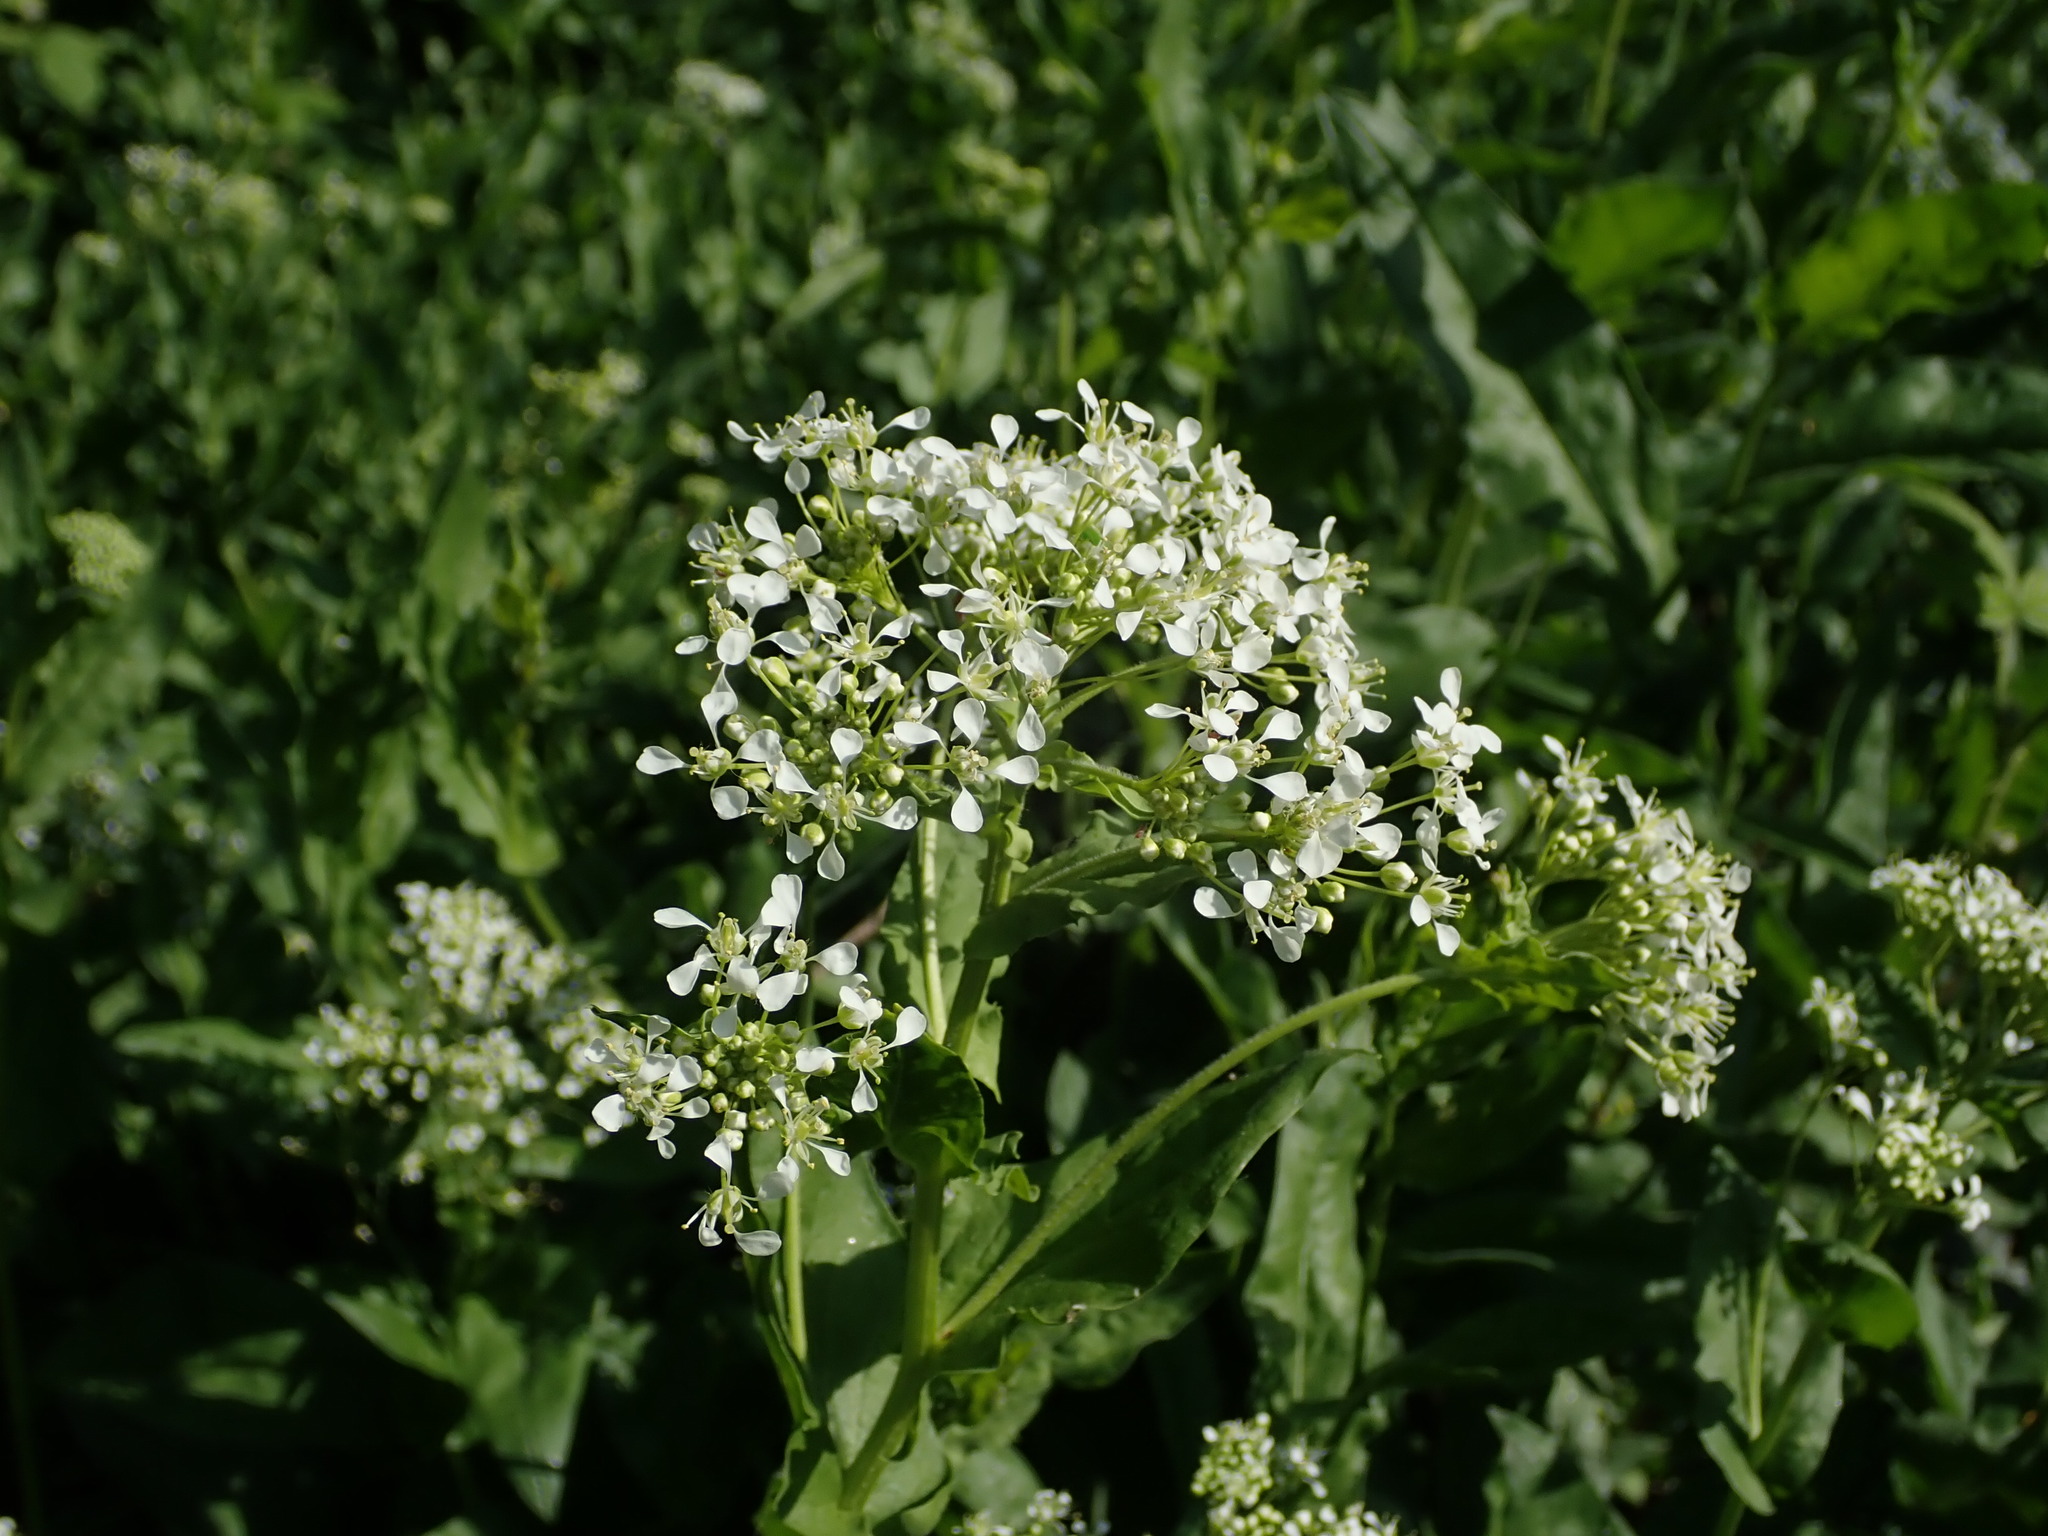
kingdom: Plantae
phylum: Tracheophyta
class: Magnoliopsida
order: Brassicales
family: Brassicaceae
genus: Lepidium
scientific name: Lepidium draba
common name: Hoary cress
